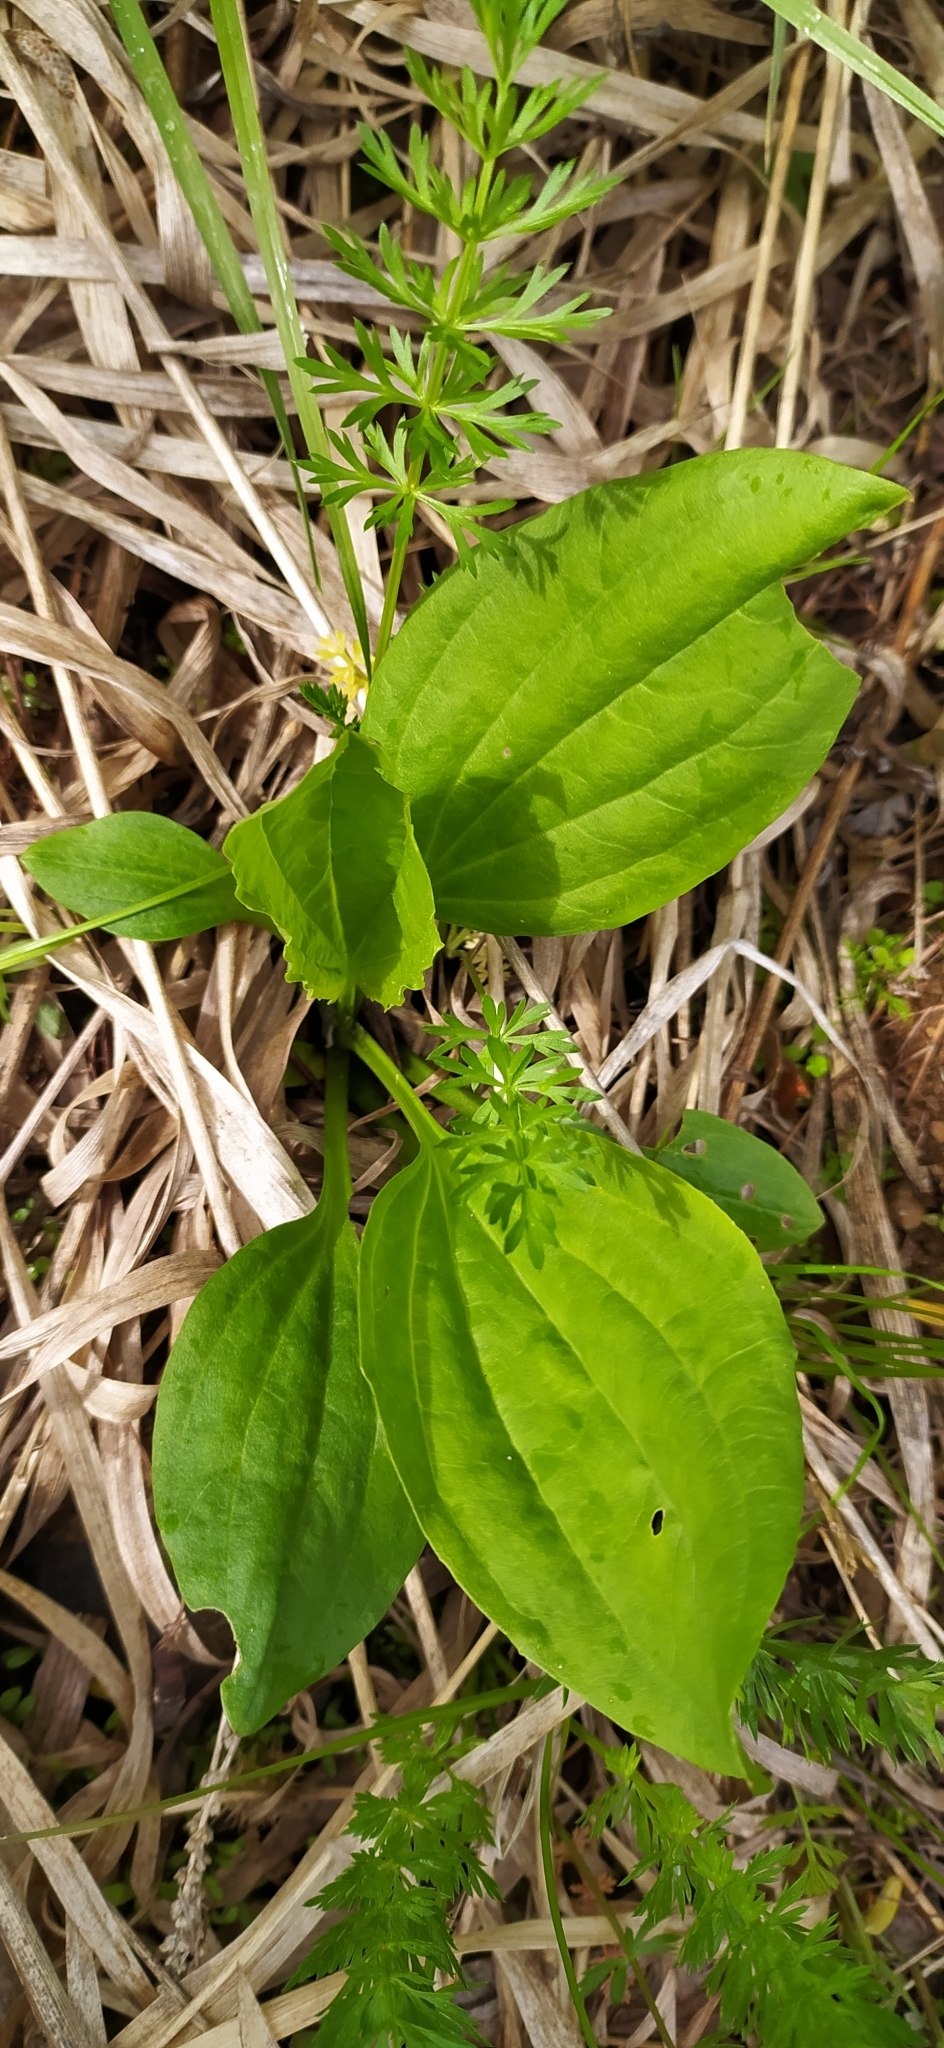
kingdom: Plantae
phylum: Tracheophyta
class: Magnoliopsida
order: Lamiales
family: Plantaginaceae
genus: Plantago
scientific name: Plantago major
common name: Common plantain
